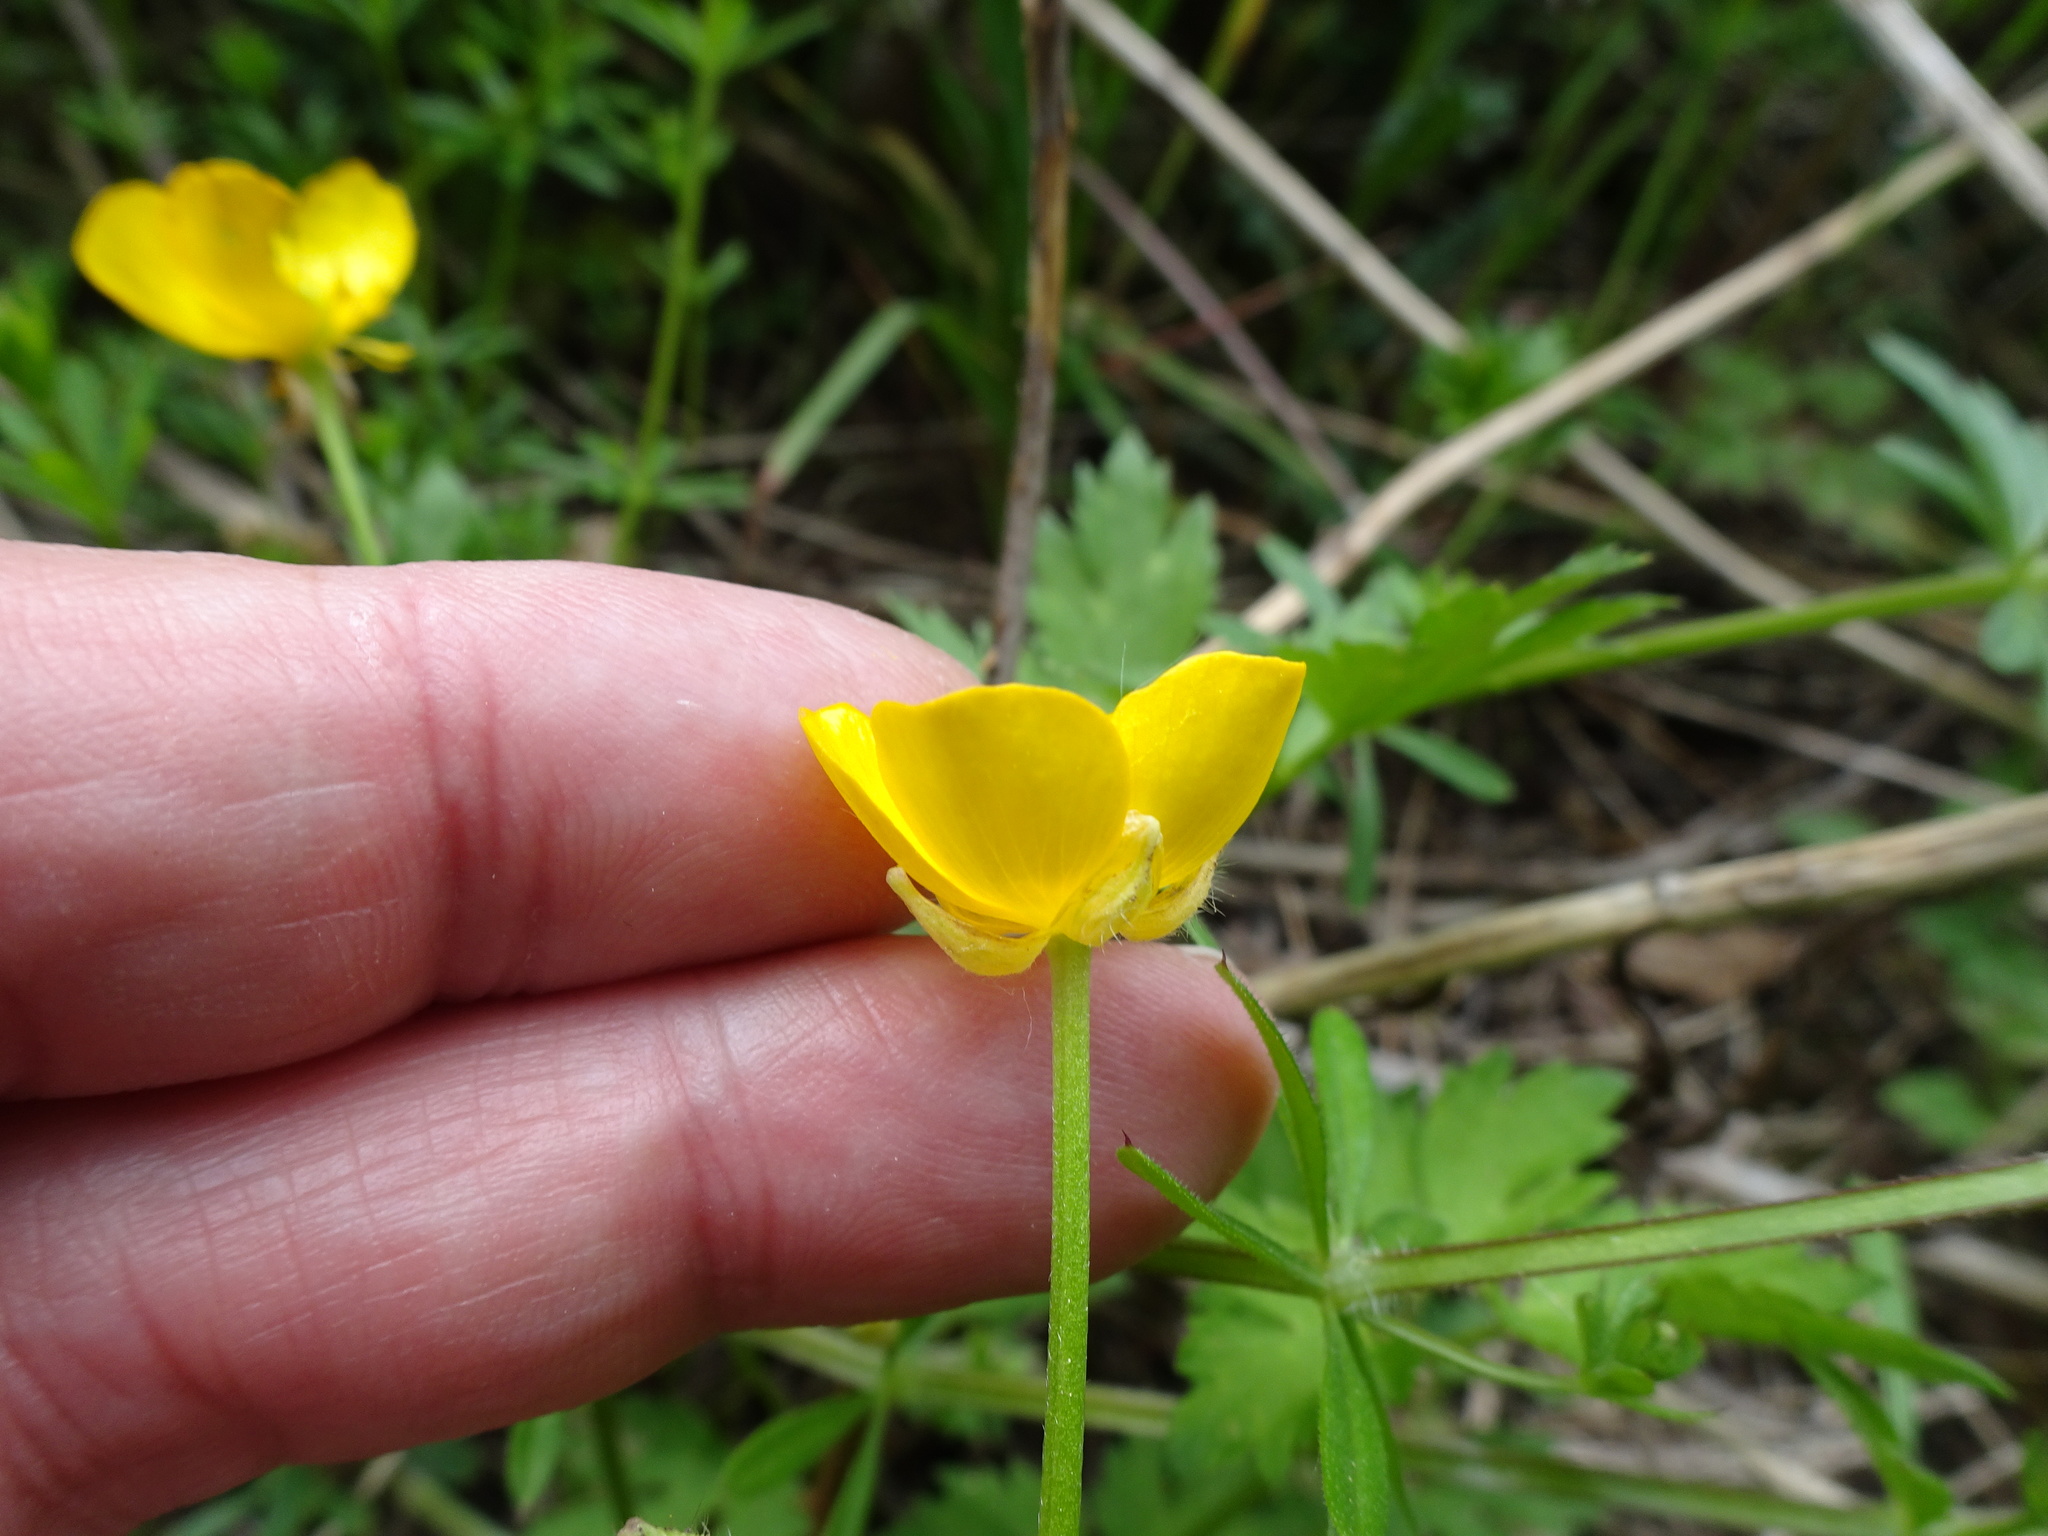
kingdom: Plantae
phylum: Tracheophyta
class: Magnoliopsida
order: Ranunculales
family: Ranunculaceae
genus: Ranunculus
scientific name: Ranunculus repens
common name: Creeping buttercup
